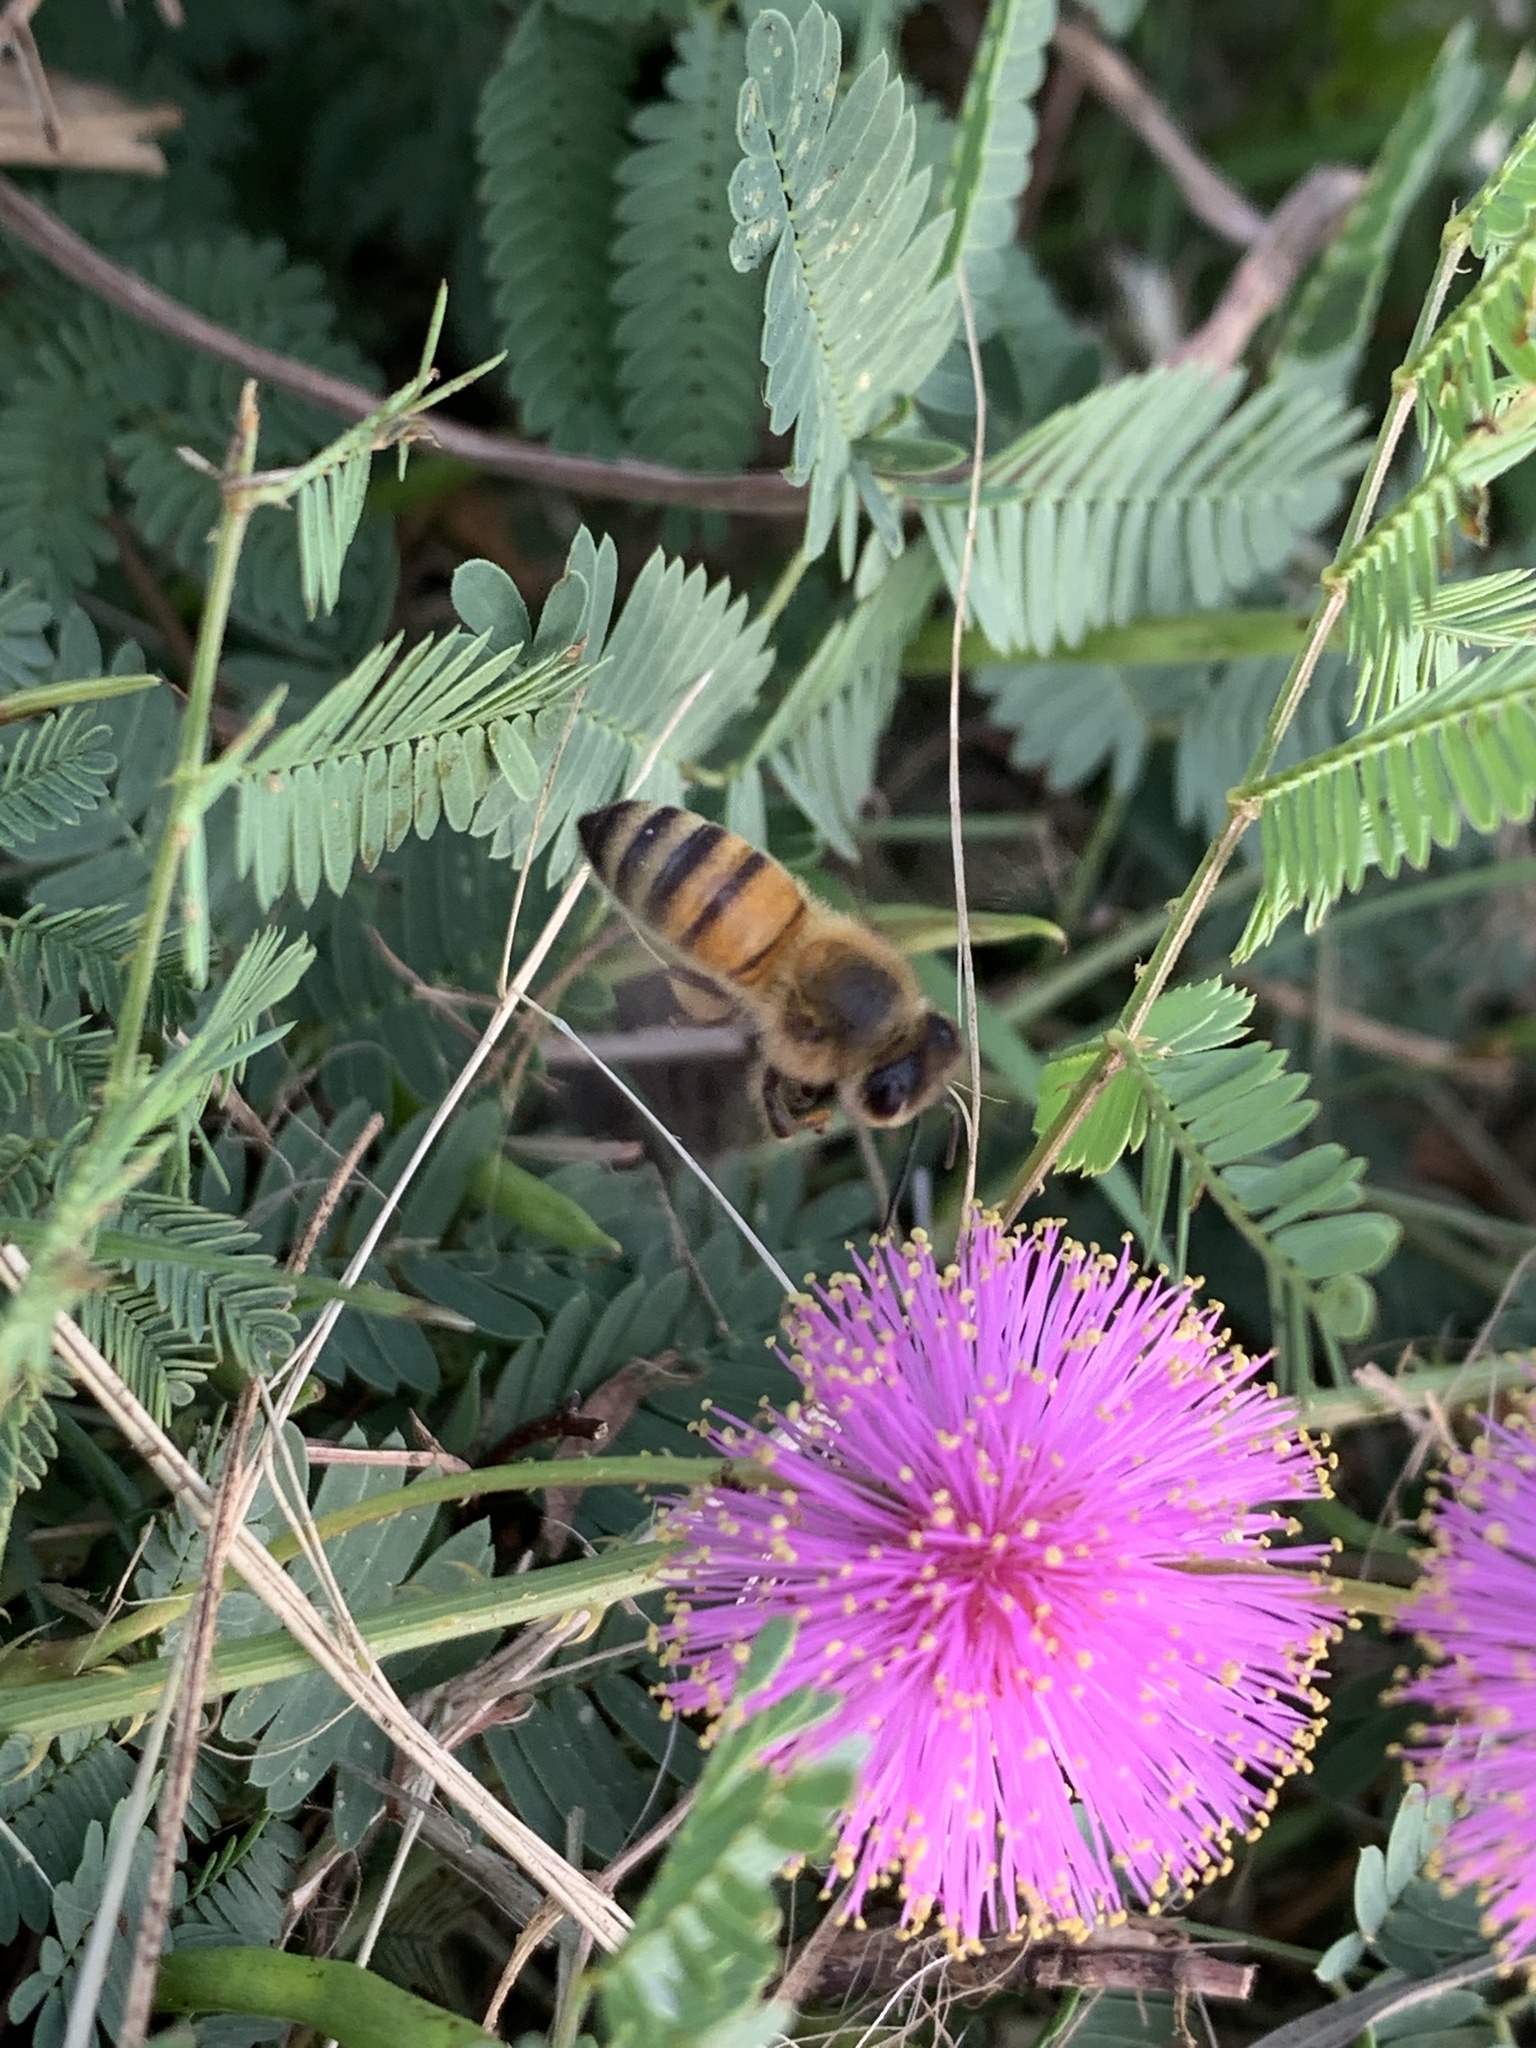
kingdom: Animalia
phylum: Arthropoda
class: Insecta
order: Hymenoptera
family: Apidae
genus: Apis
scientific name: Apis mellifera
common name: Honey bee
